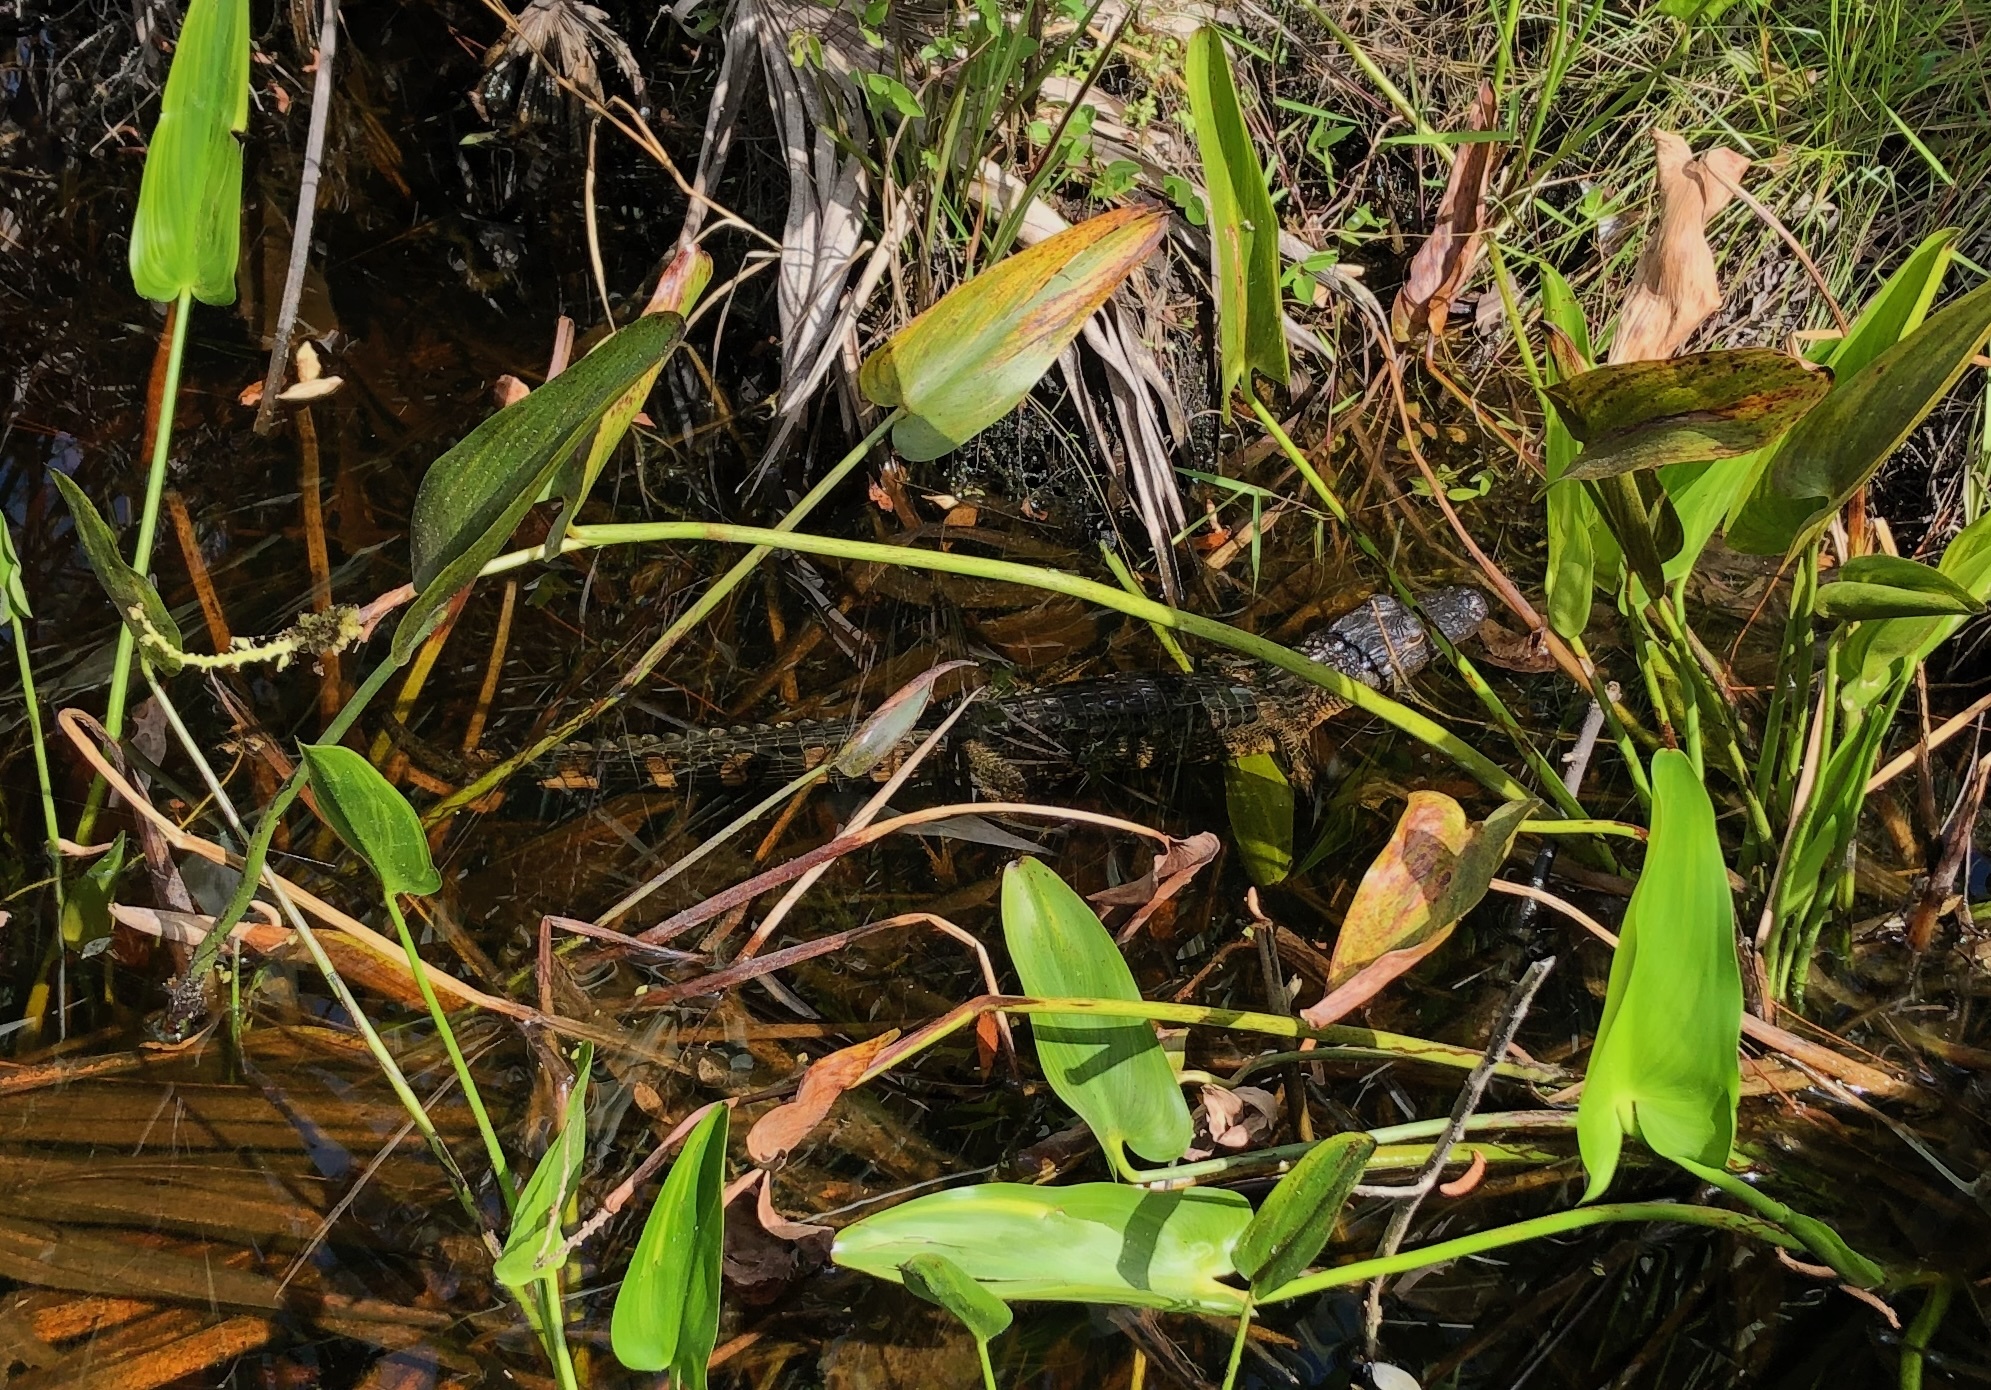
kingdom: Animalia
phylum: Chordata
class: Crocodylia
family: Alligatoridae
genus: Alligator
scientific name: Alligator mississippiensis
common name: American alligator
